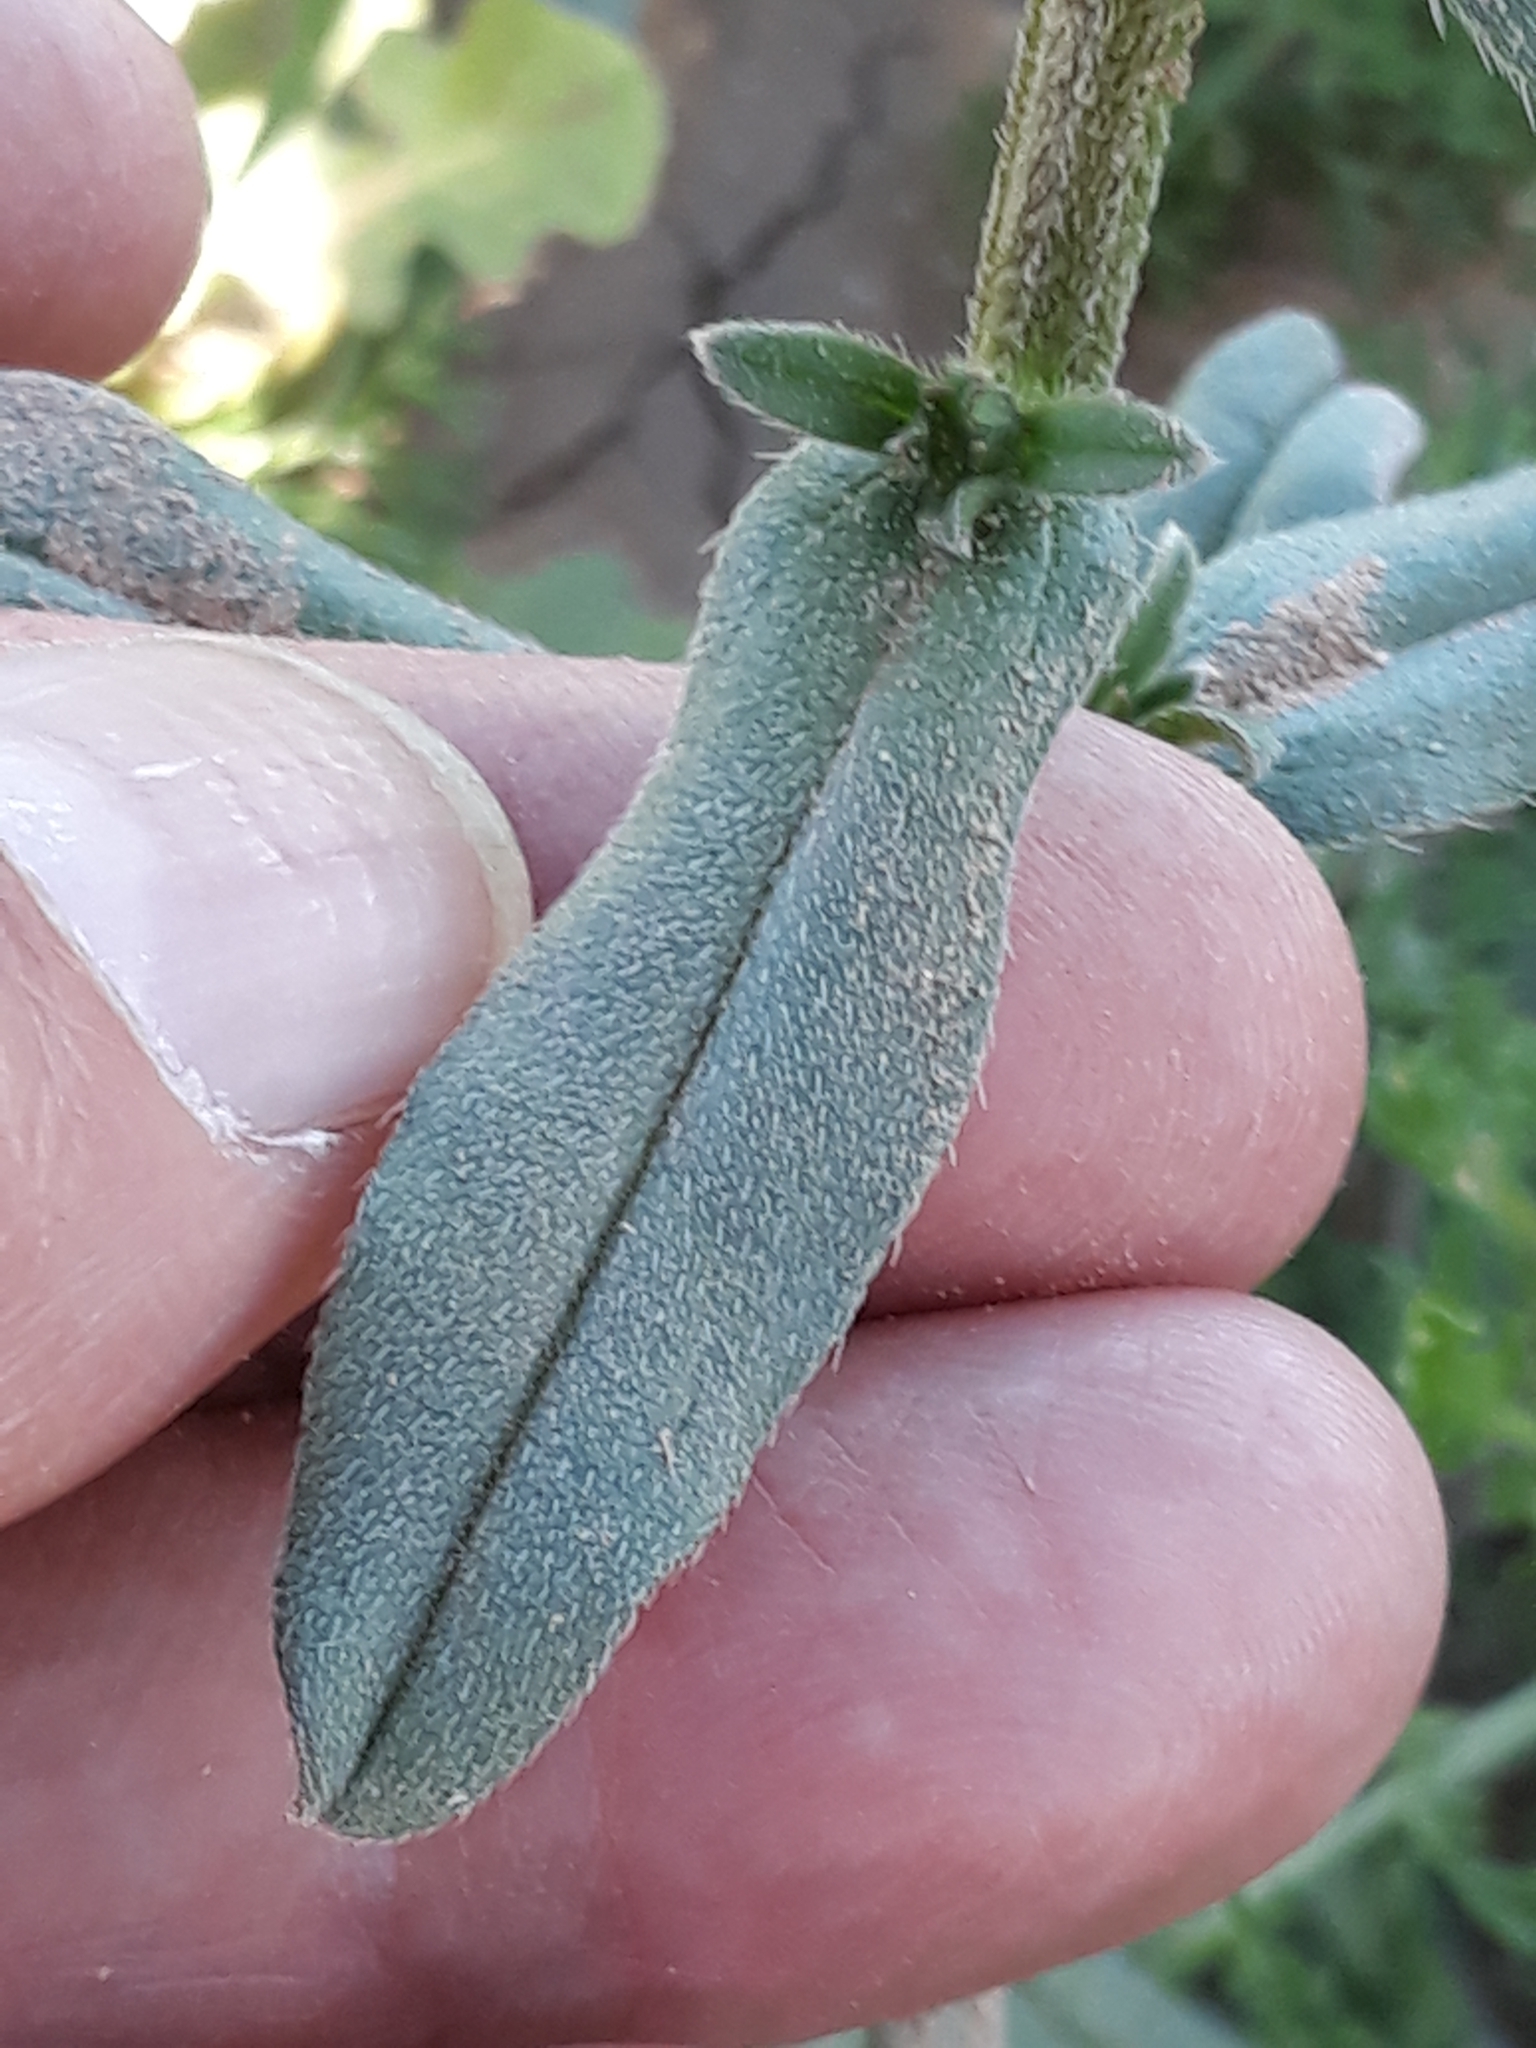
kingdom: Plantae
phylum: Tracheophyta
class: Magnoliopsida
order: Boraginales
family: Boraginaceae
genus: Buglossoides
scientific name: Buglossoides arvensis
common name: Corn gromwell
